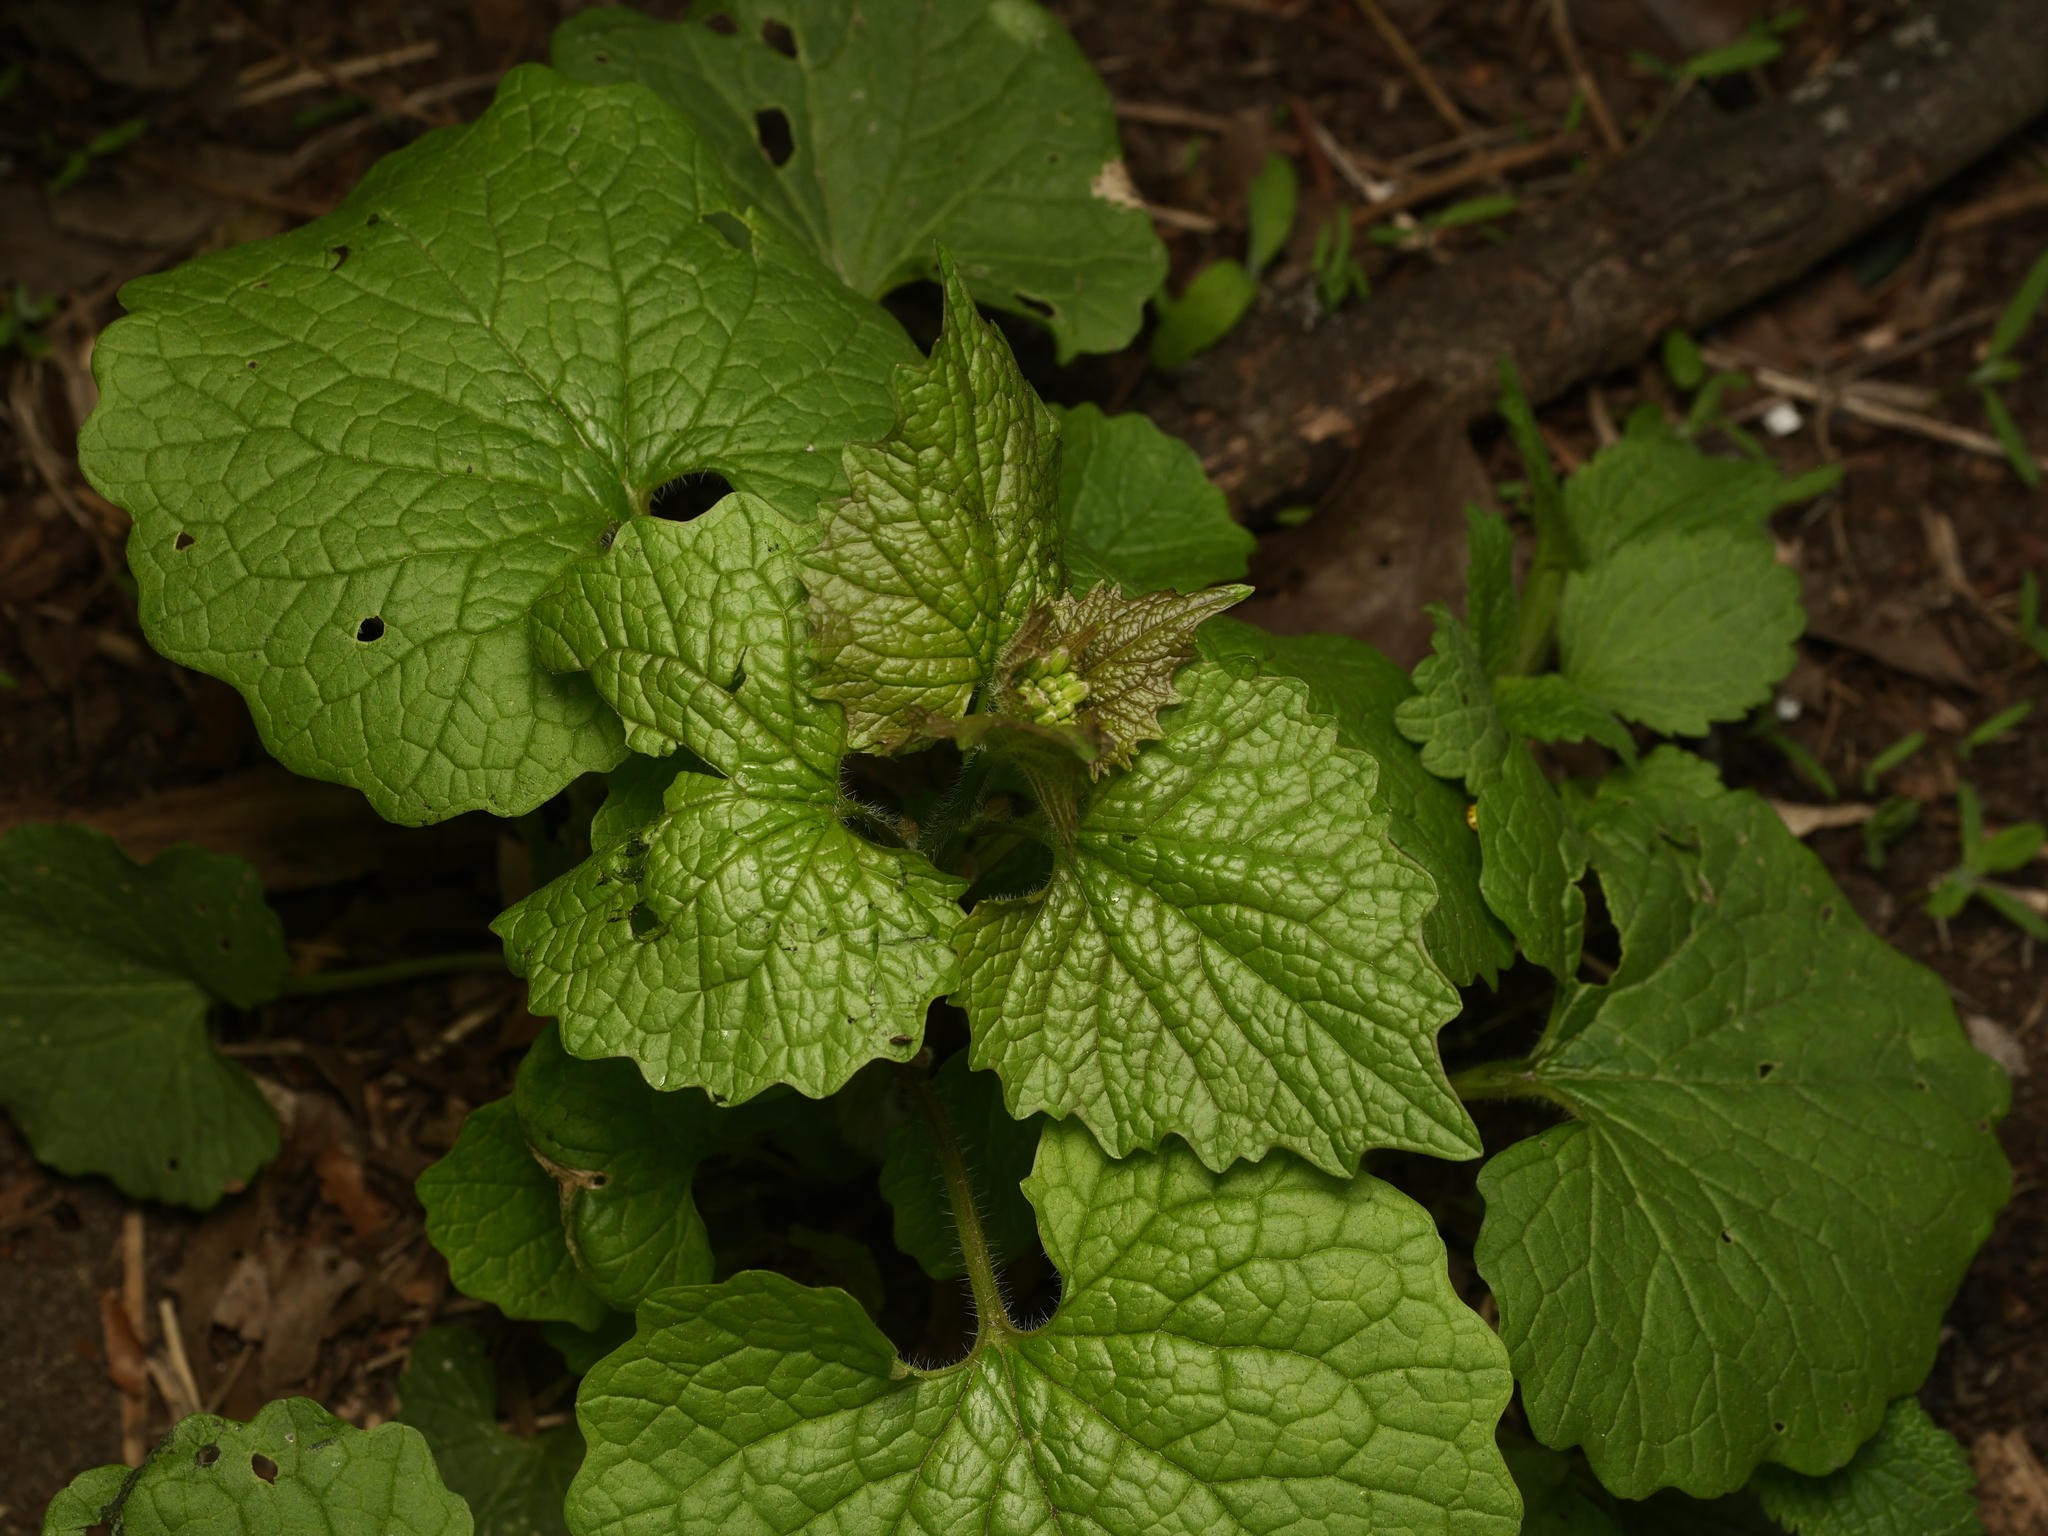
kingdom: Plantae
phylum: Tracheophyta
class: Magnoliopsida
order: Brassicales
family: Brassicaceae
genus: Alliaria
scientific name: Alliaria petiolata
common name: Garlic mustard
